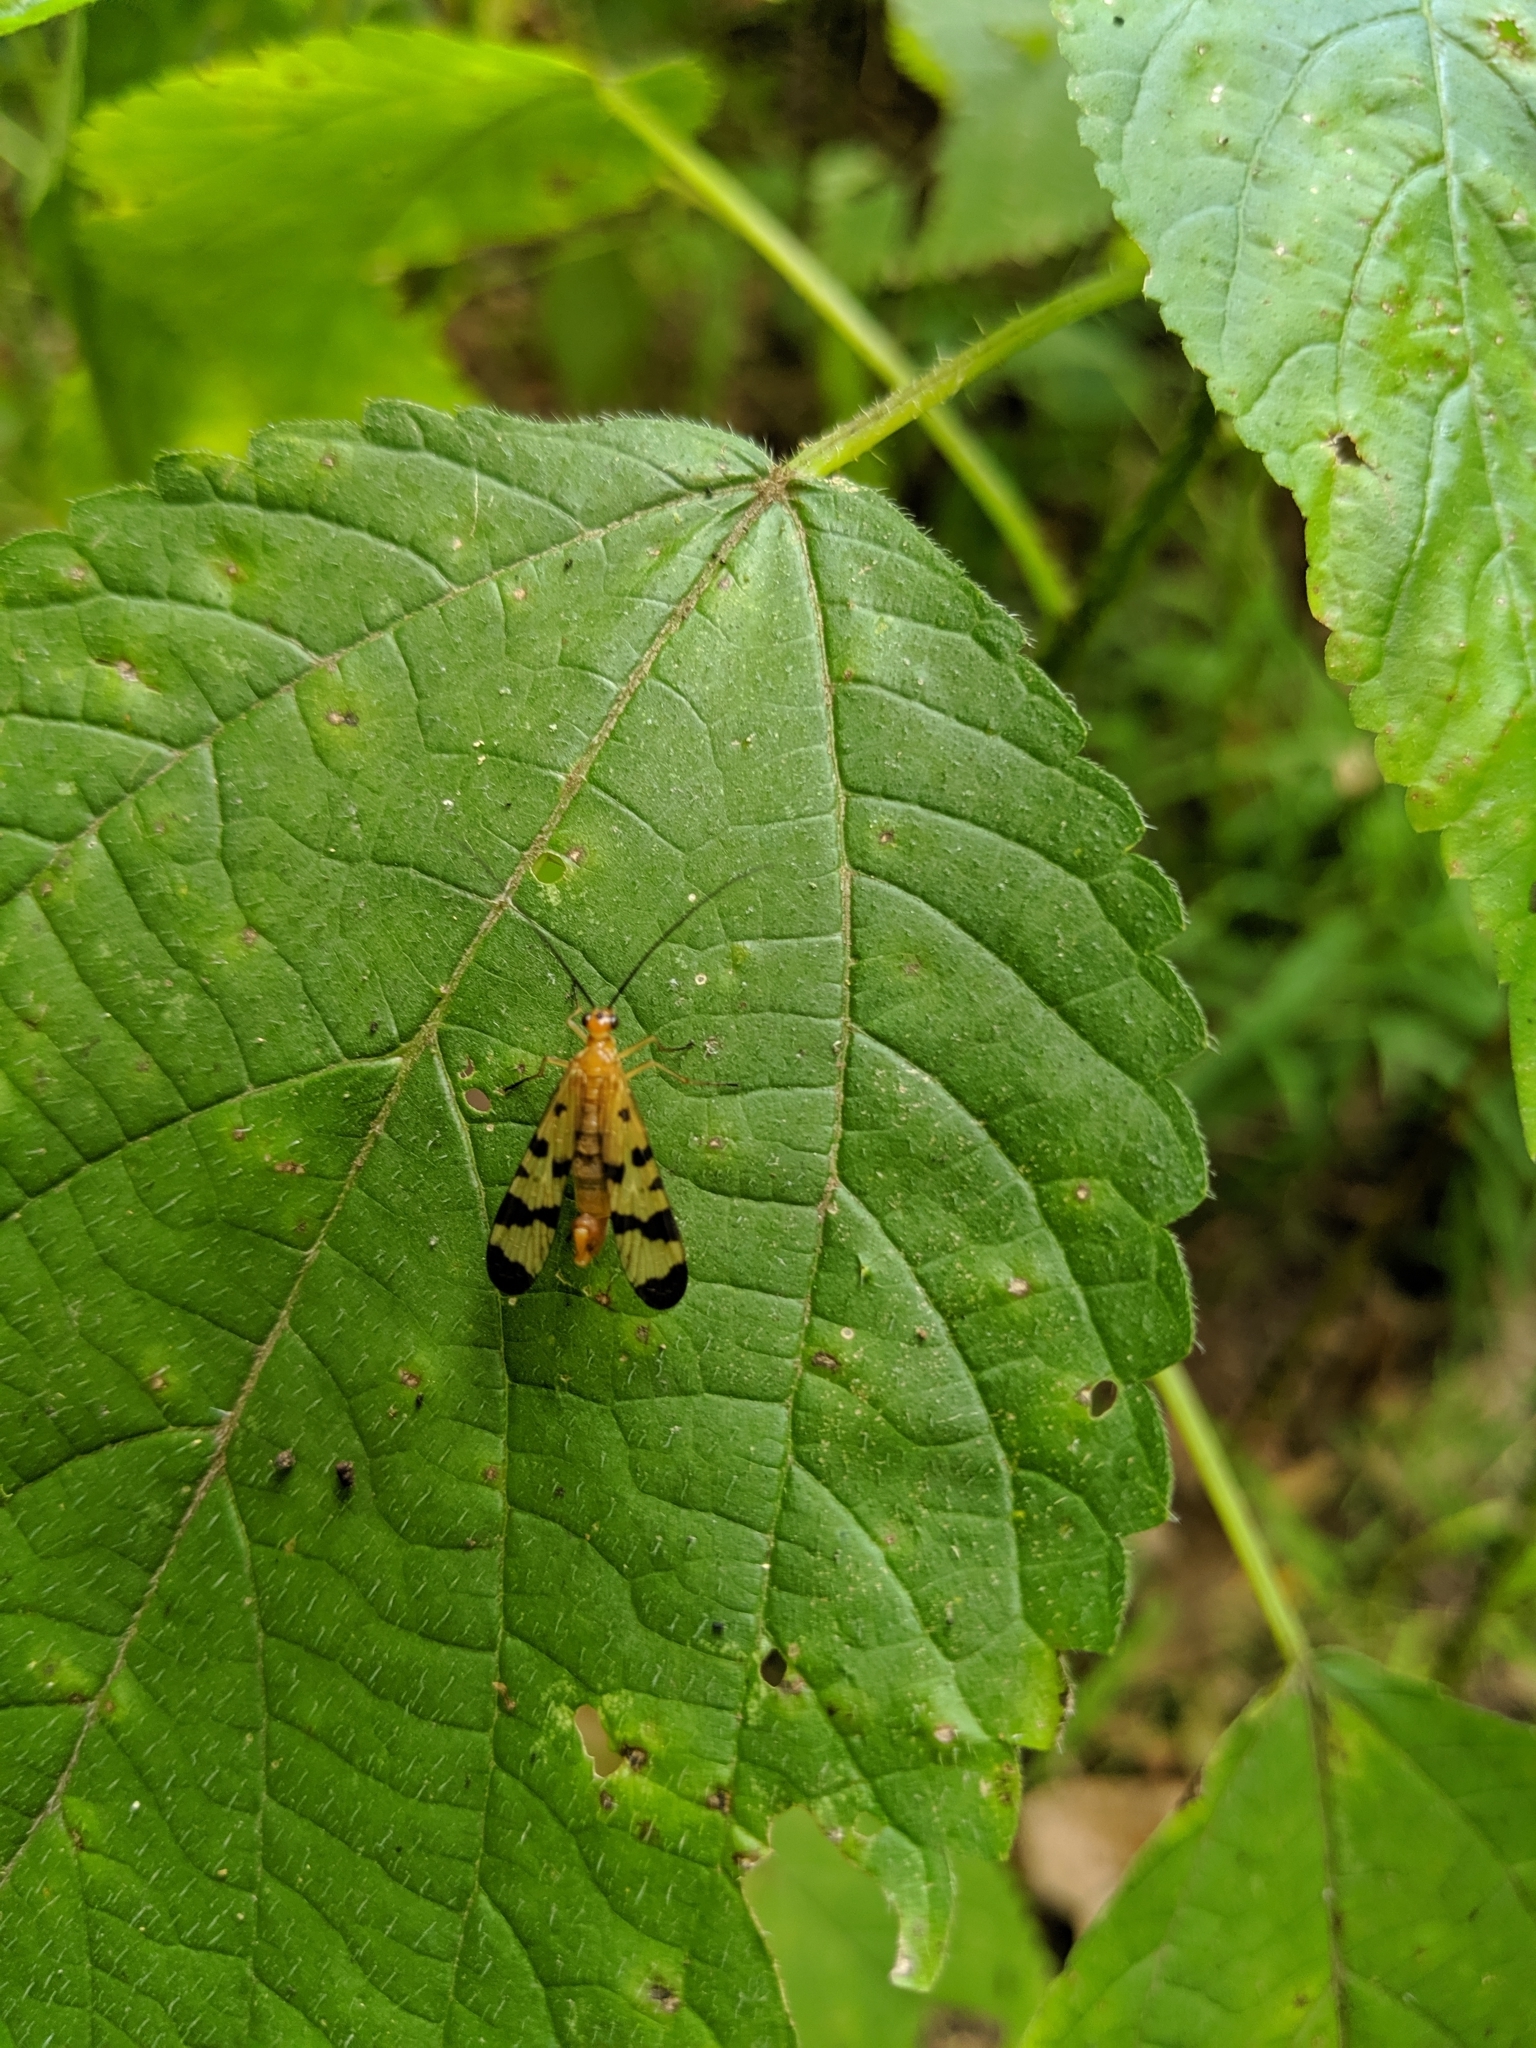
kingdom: Animalia
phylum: Arthropoda
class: Insecta
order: Mecoptera
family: Panorpidae
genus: Panorpa
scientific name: Panorpa
